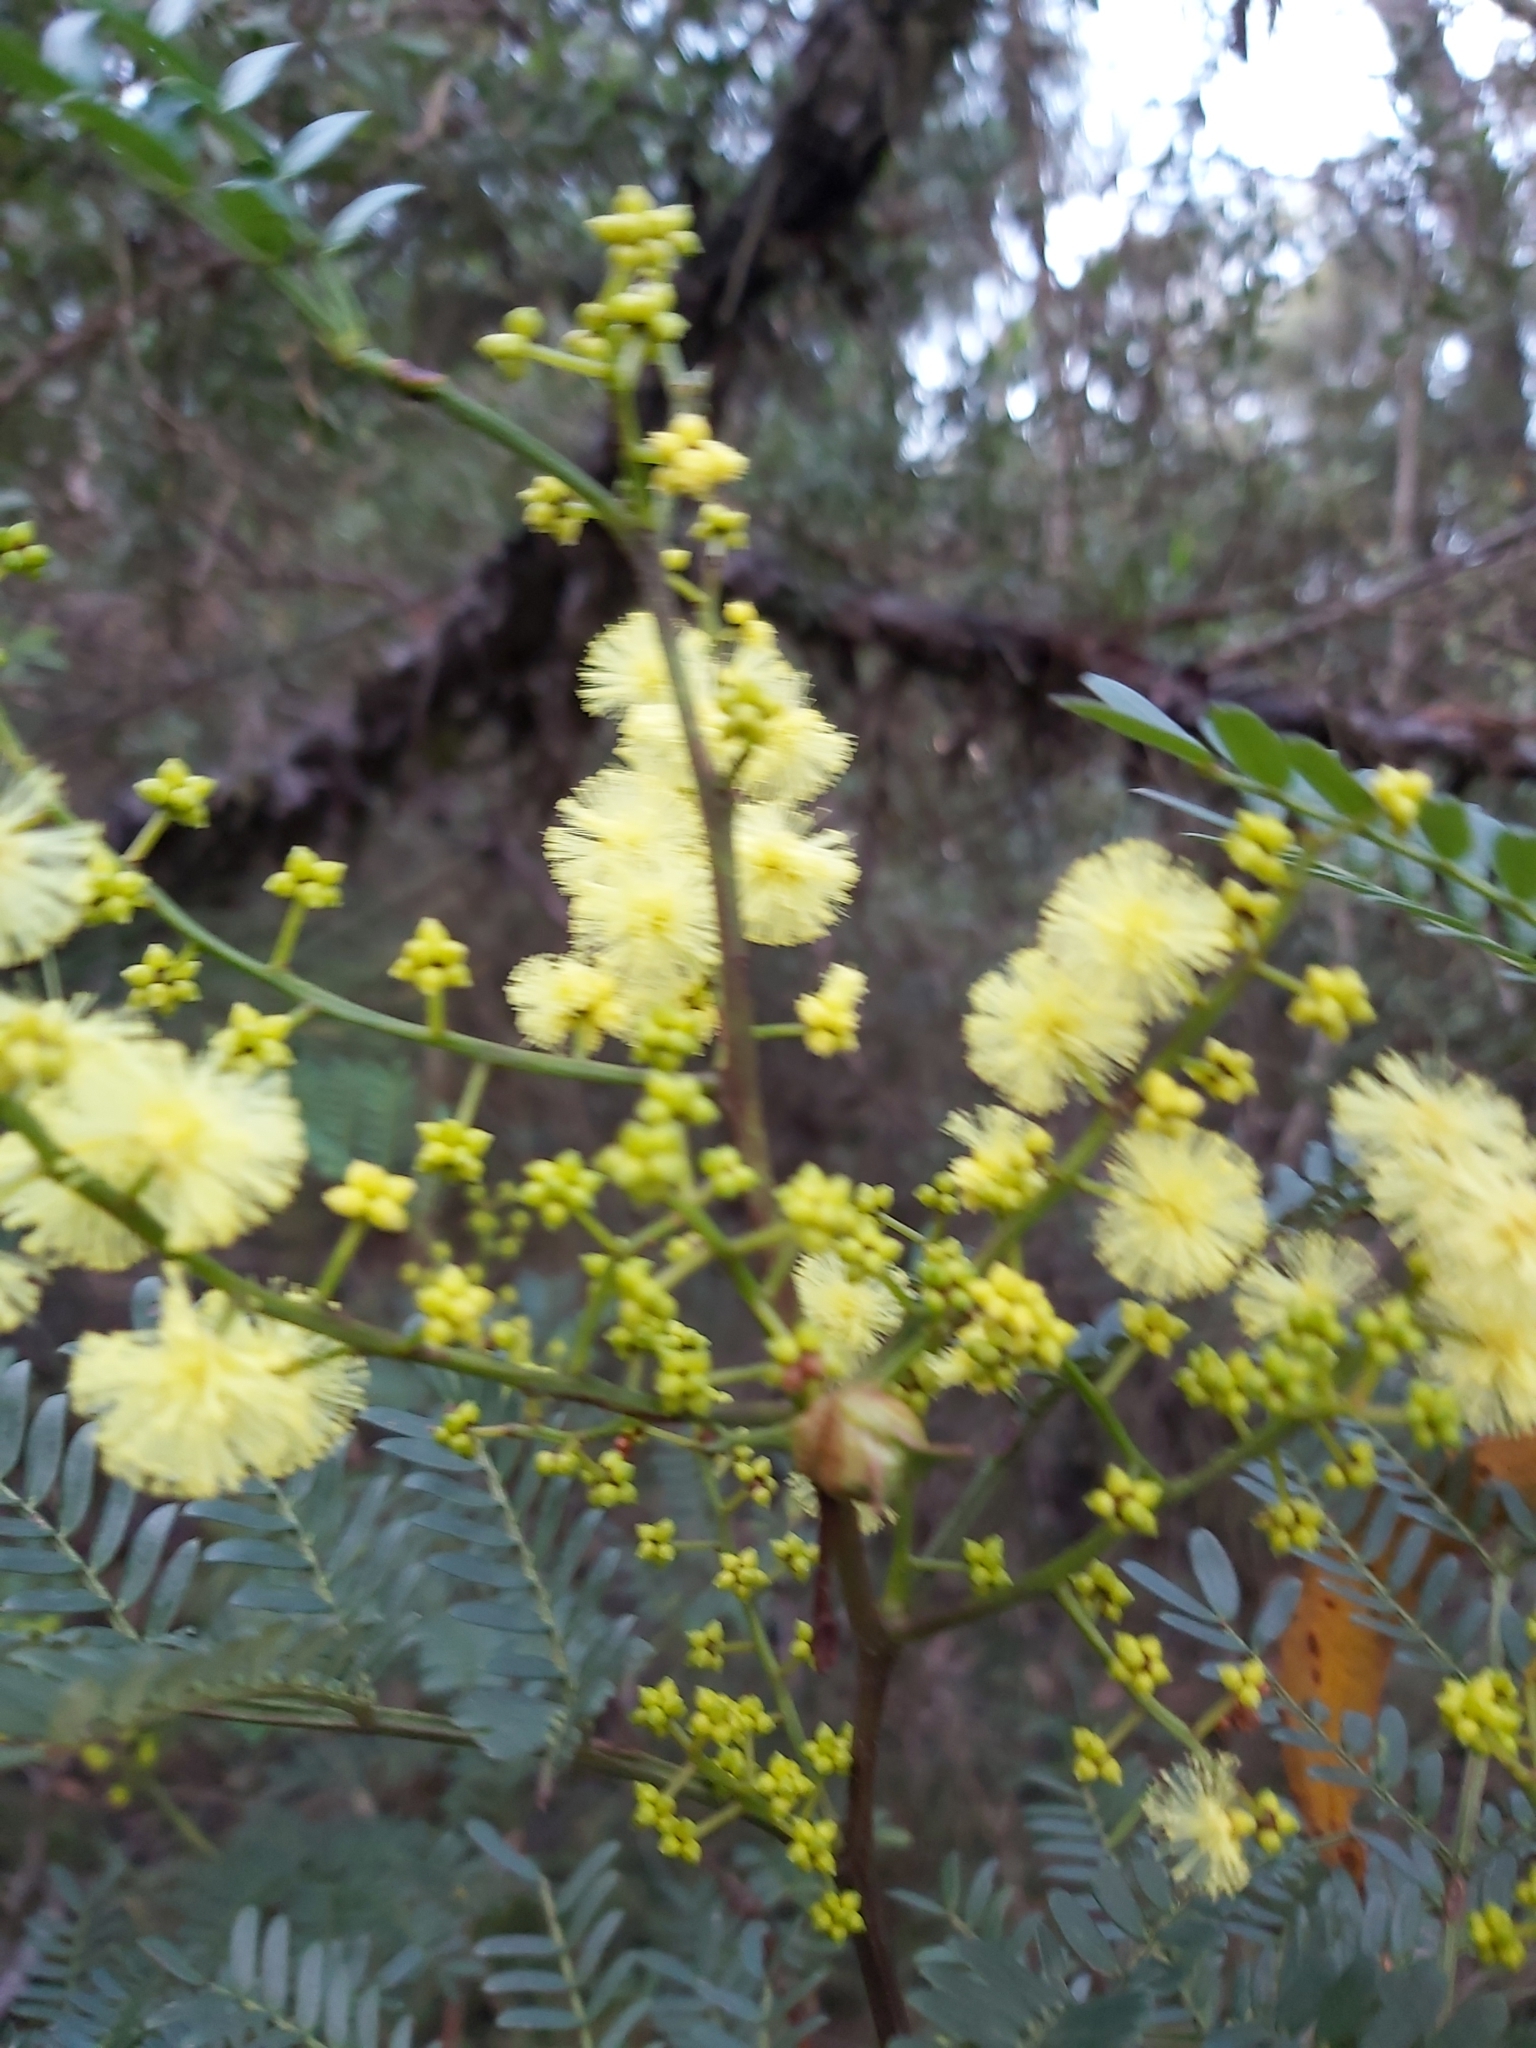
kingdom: Plantae
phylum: Tracheophyta
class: Magnoliopsida
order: Fabales
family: Fabaceae
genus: Acacia
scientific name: Acacia terminalis
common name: Cedar wattle
